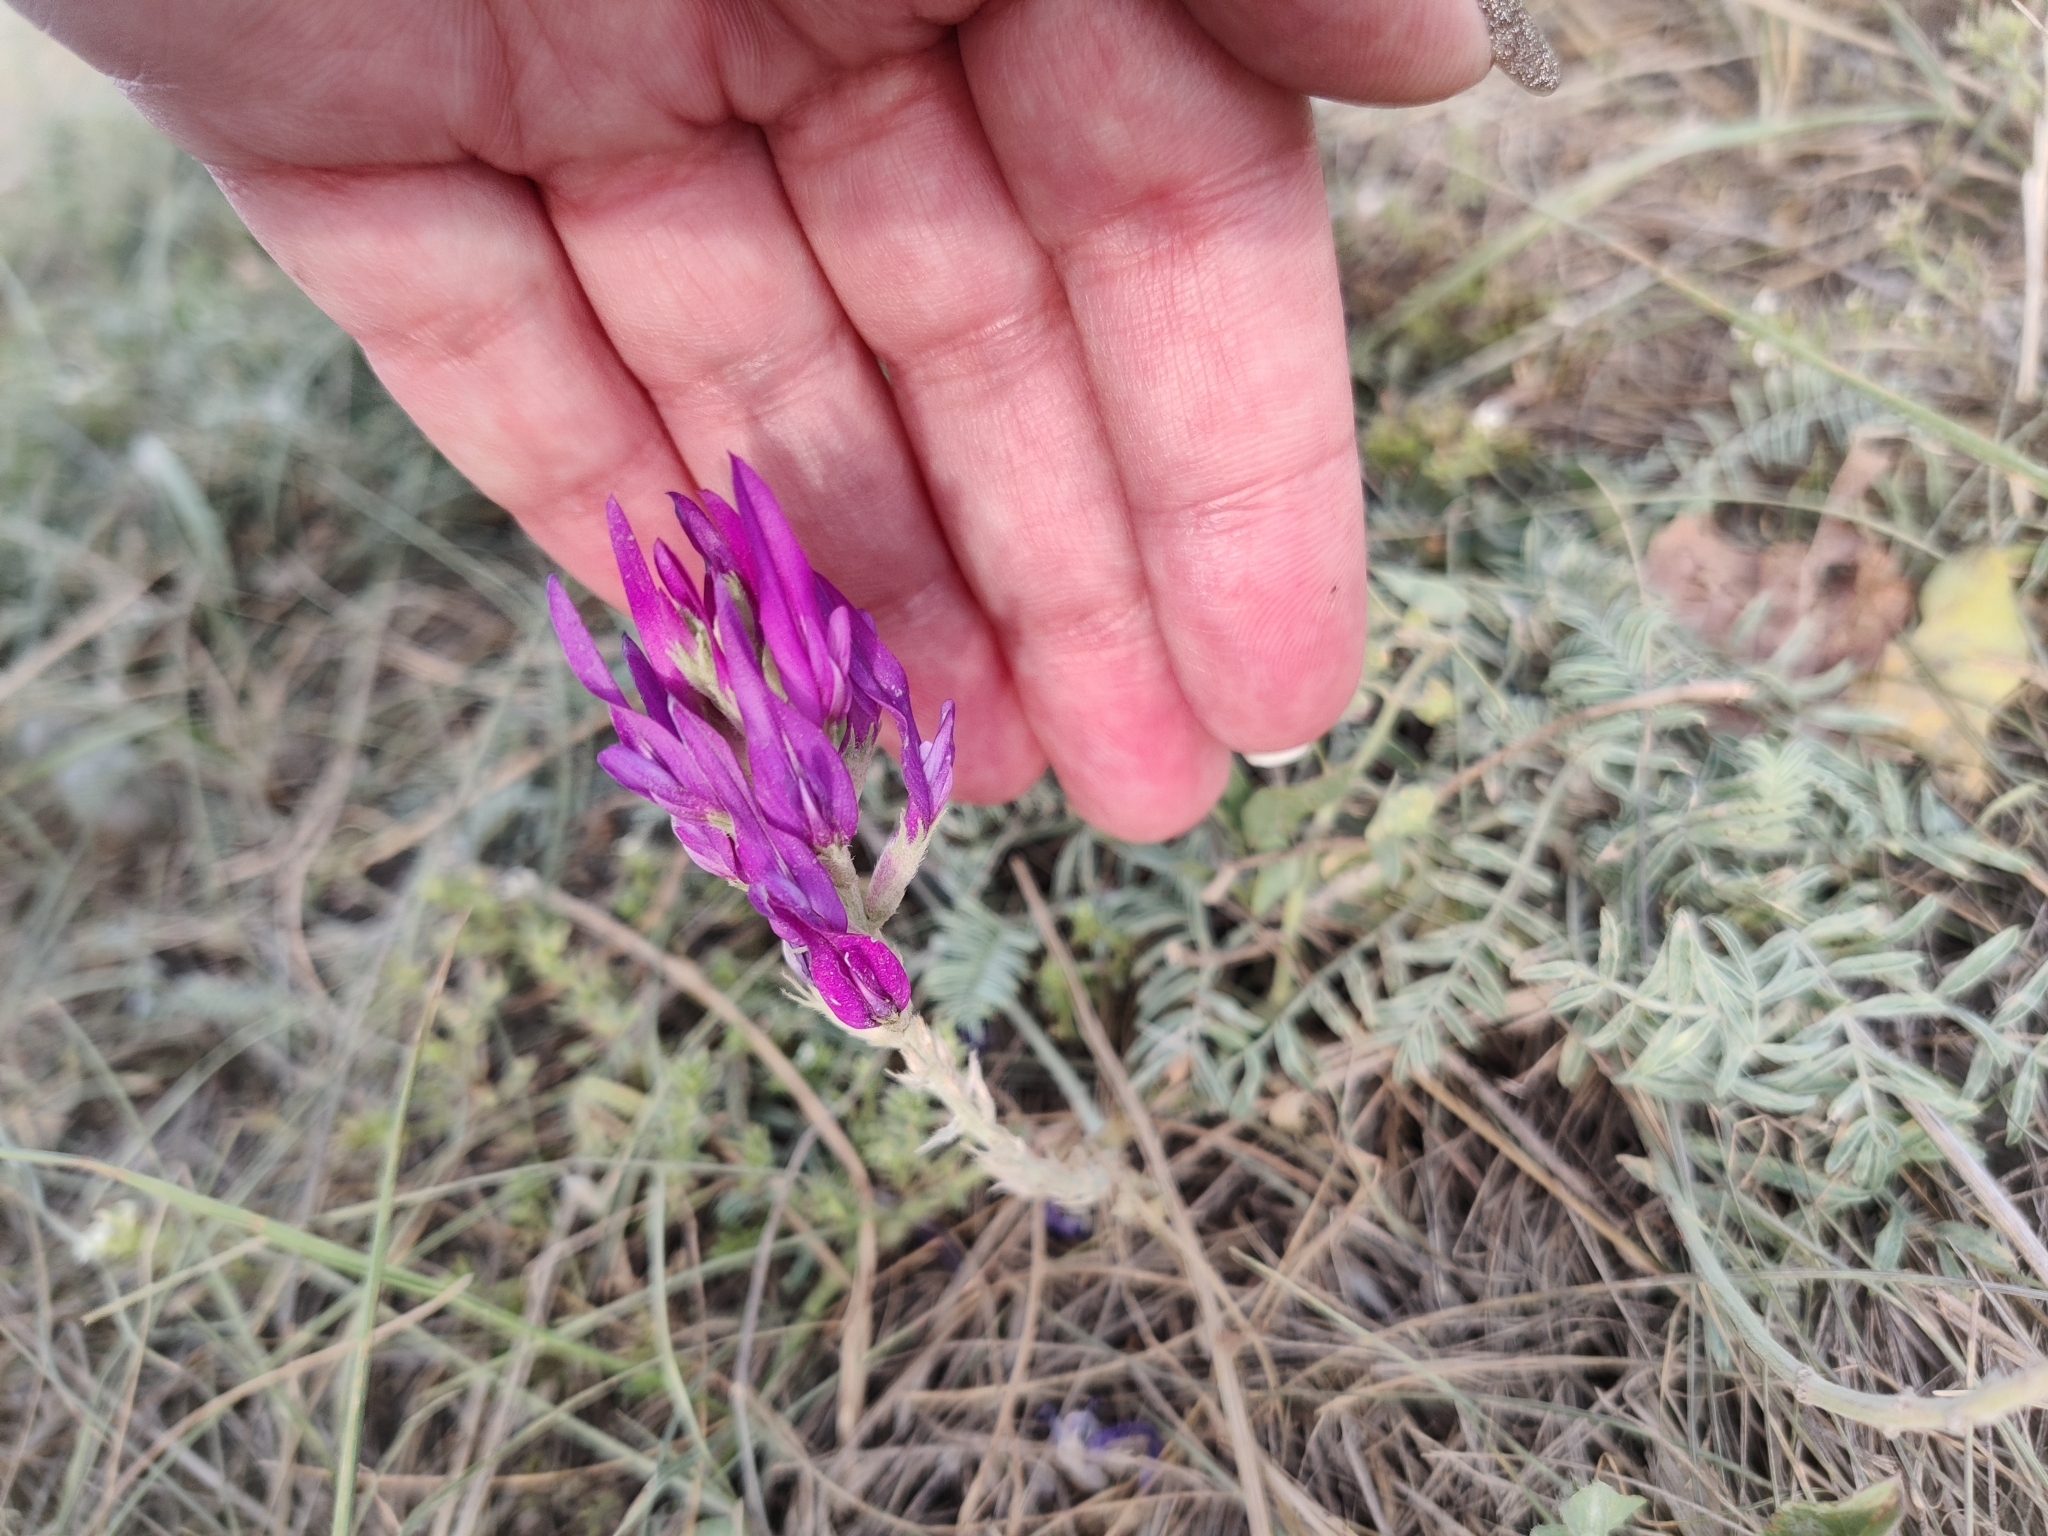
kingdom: Plantae
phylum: Tracheophyta
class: Magnoliopsida
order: Fabales
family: Fabaceae
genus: Astragalus
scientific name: Astragalus onobrychis
